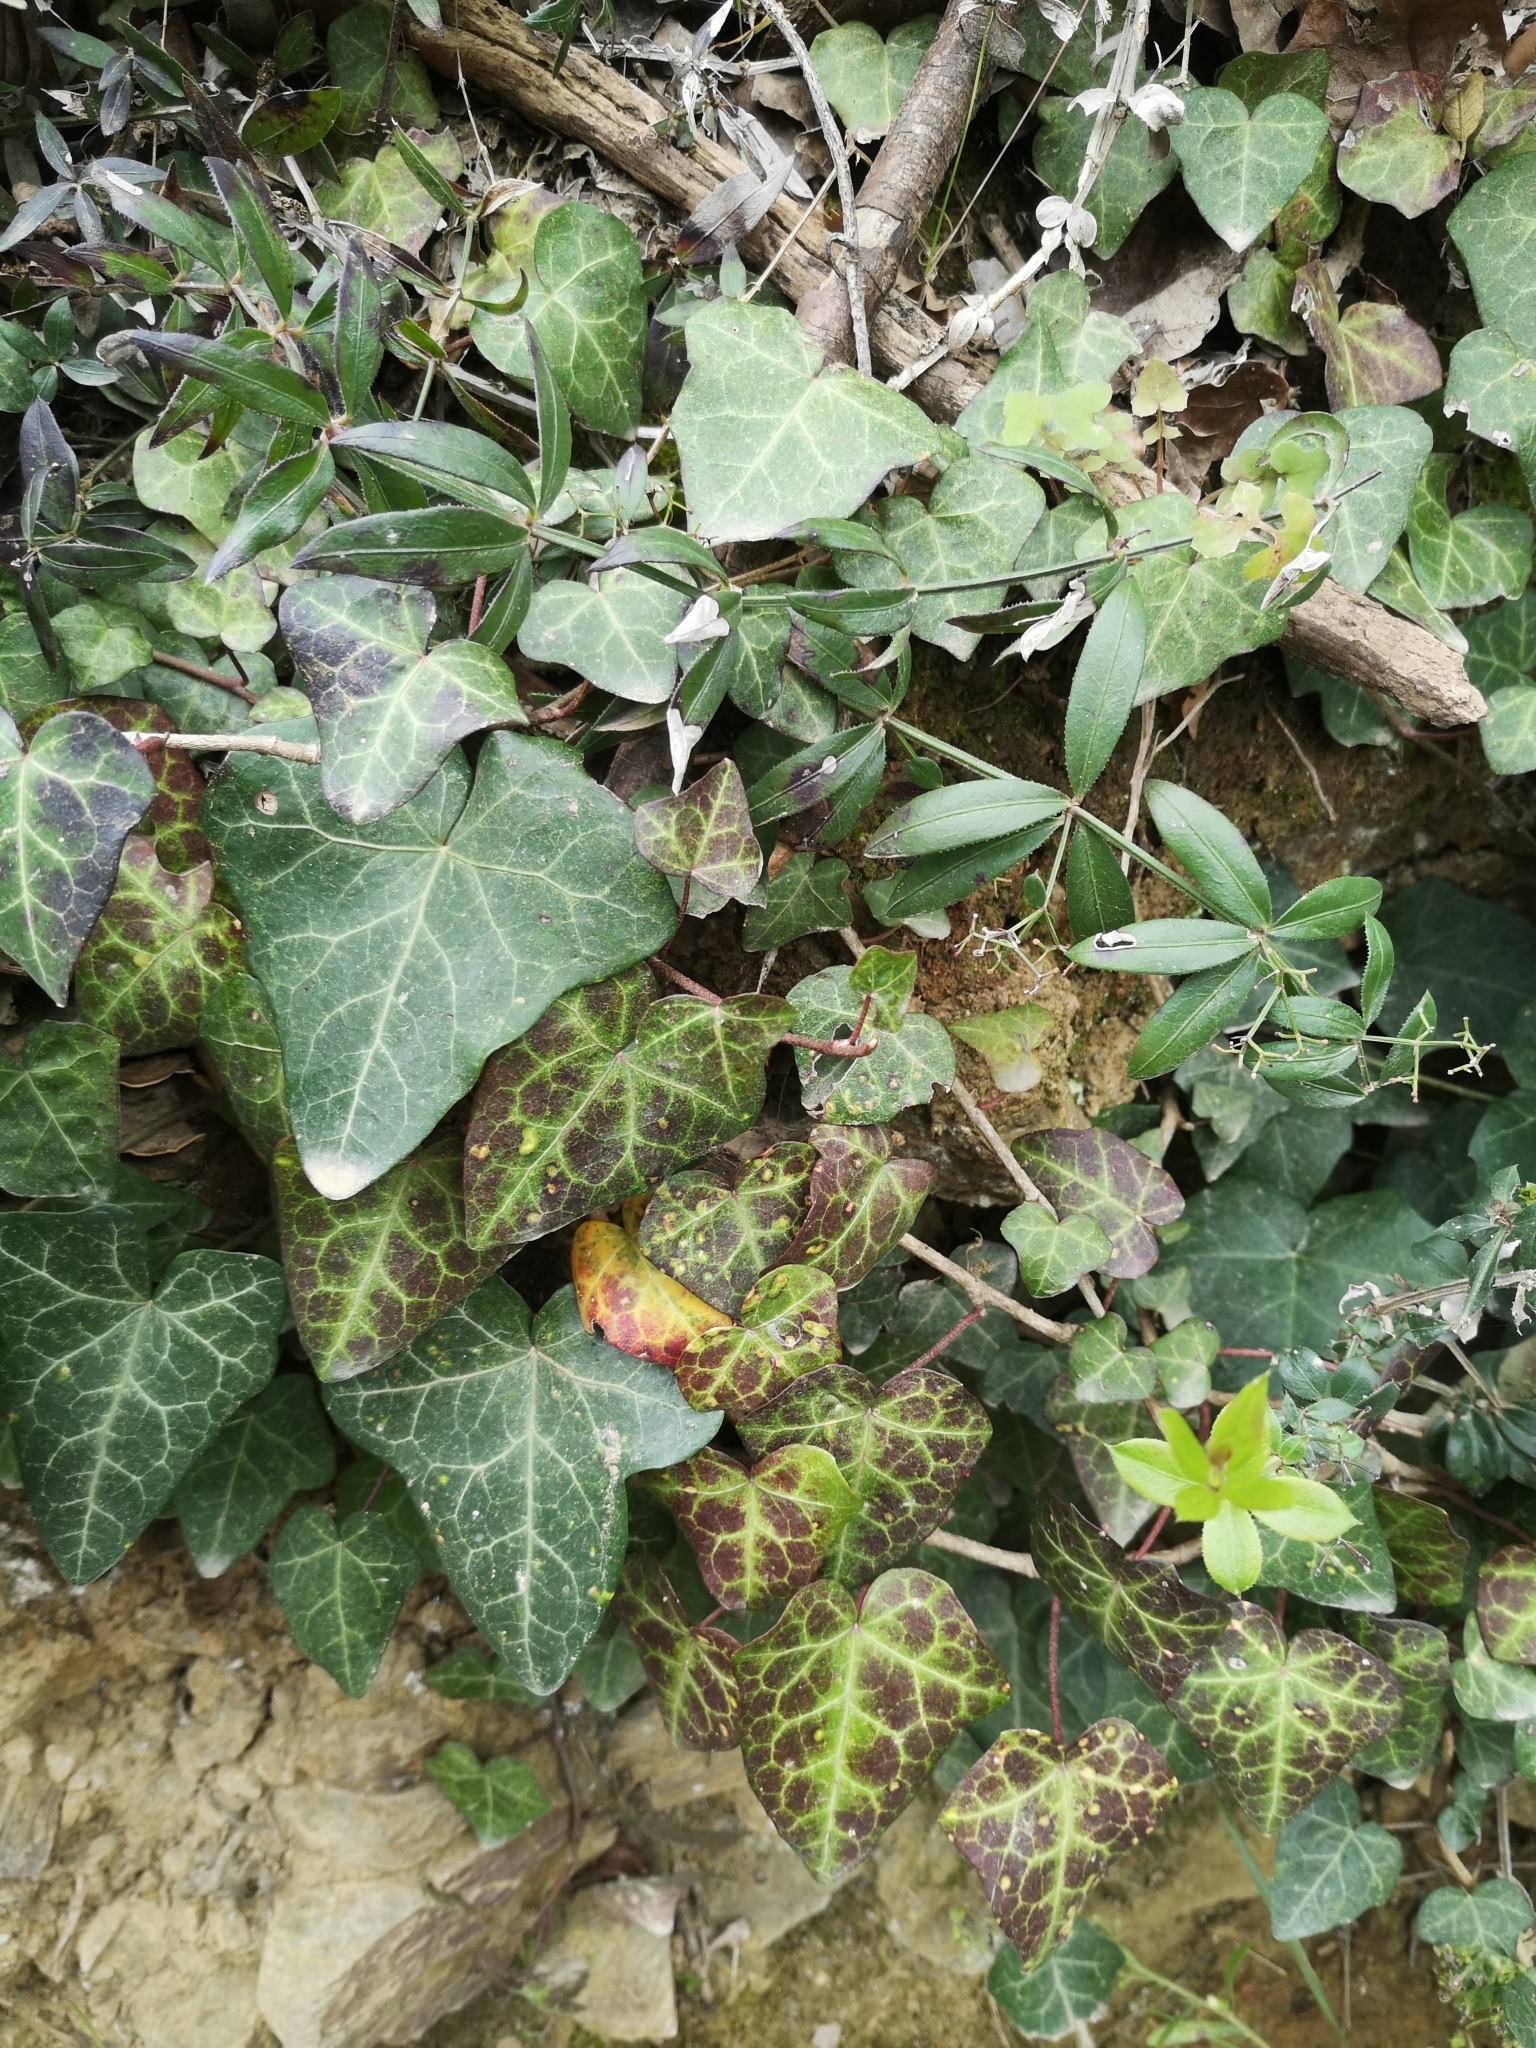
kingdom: Plantae
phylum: Tracheophyta
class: Magnoliopsida
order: Gentianales
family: Rubiaceae
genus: Rubia
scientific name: Rubia peregrina
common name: Wild madder
